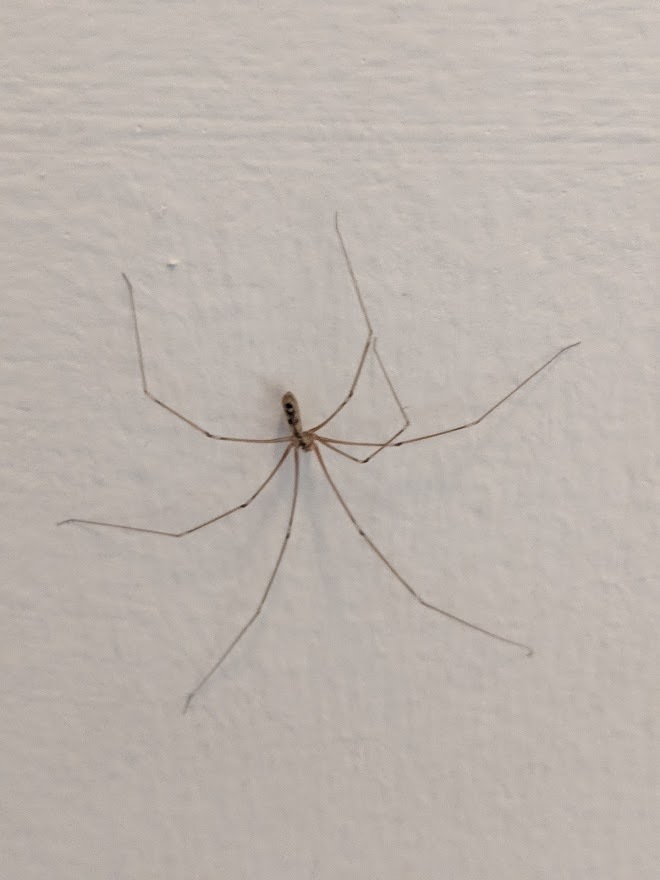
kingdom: Animalia
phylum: Arthropoda
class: Arachnida
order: Araneae
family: Pholcidae
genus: Pholcus
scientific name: Pholcus phalangioides
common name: Longbodied cellar spider
